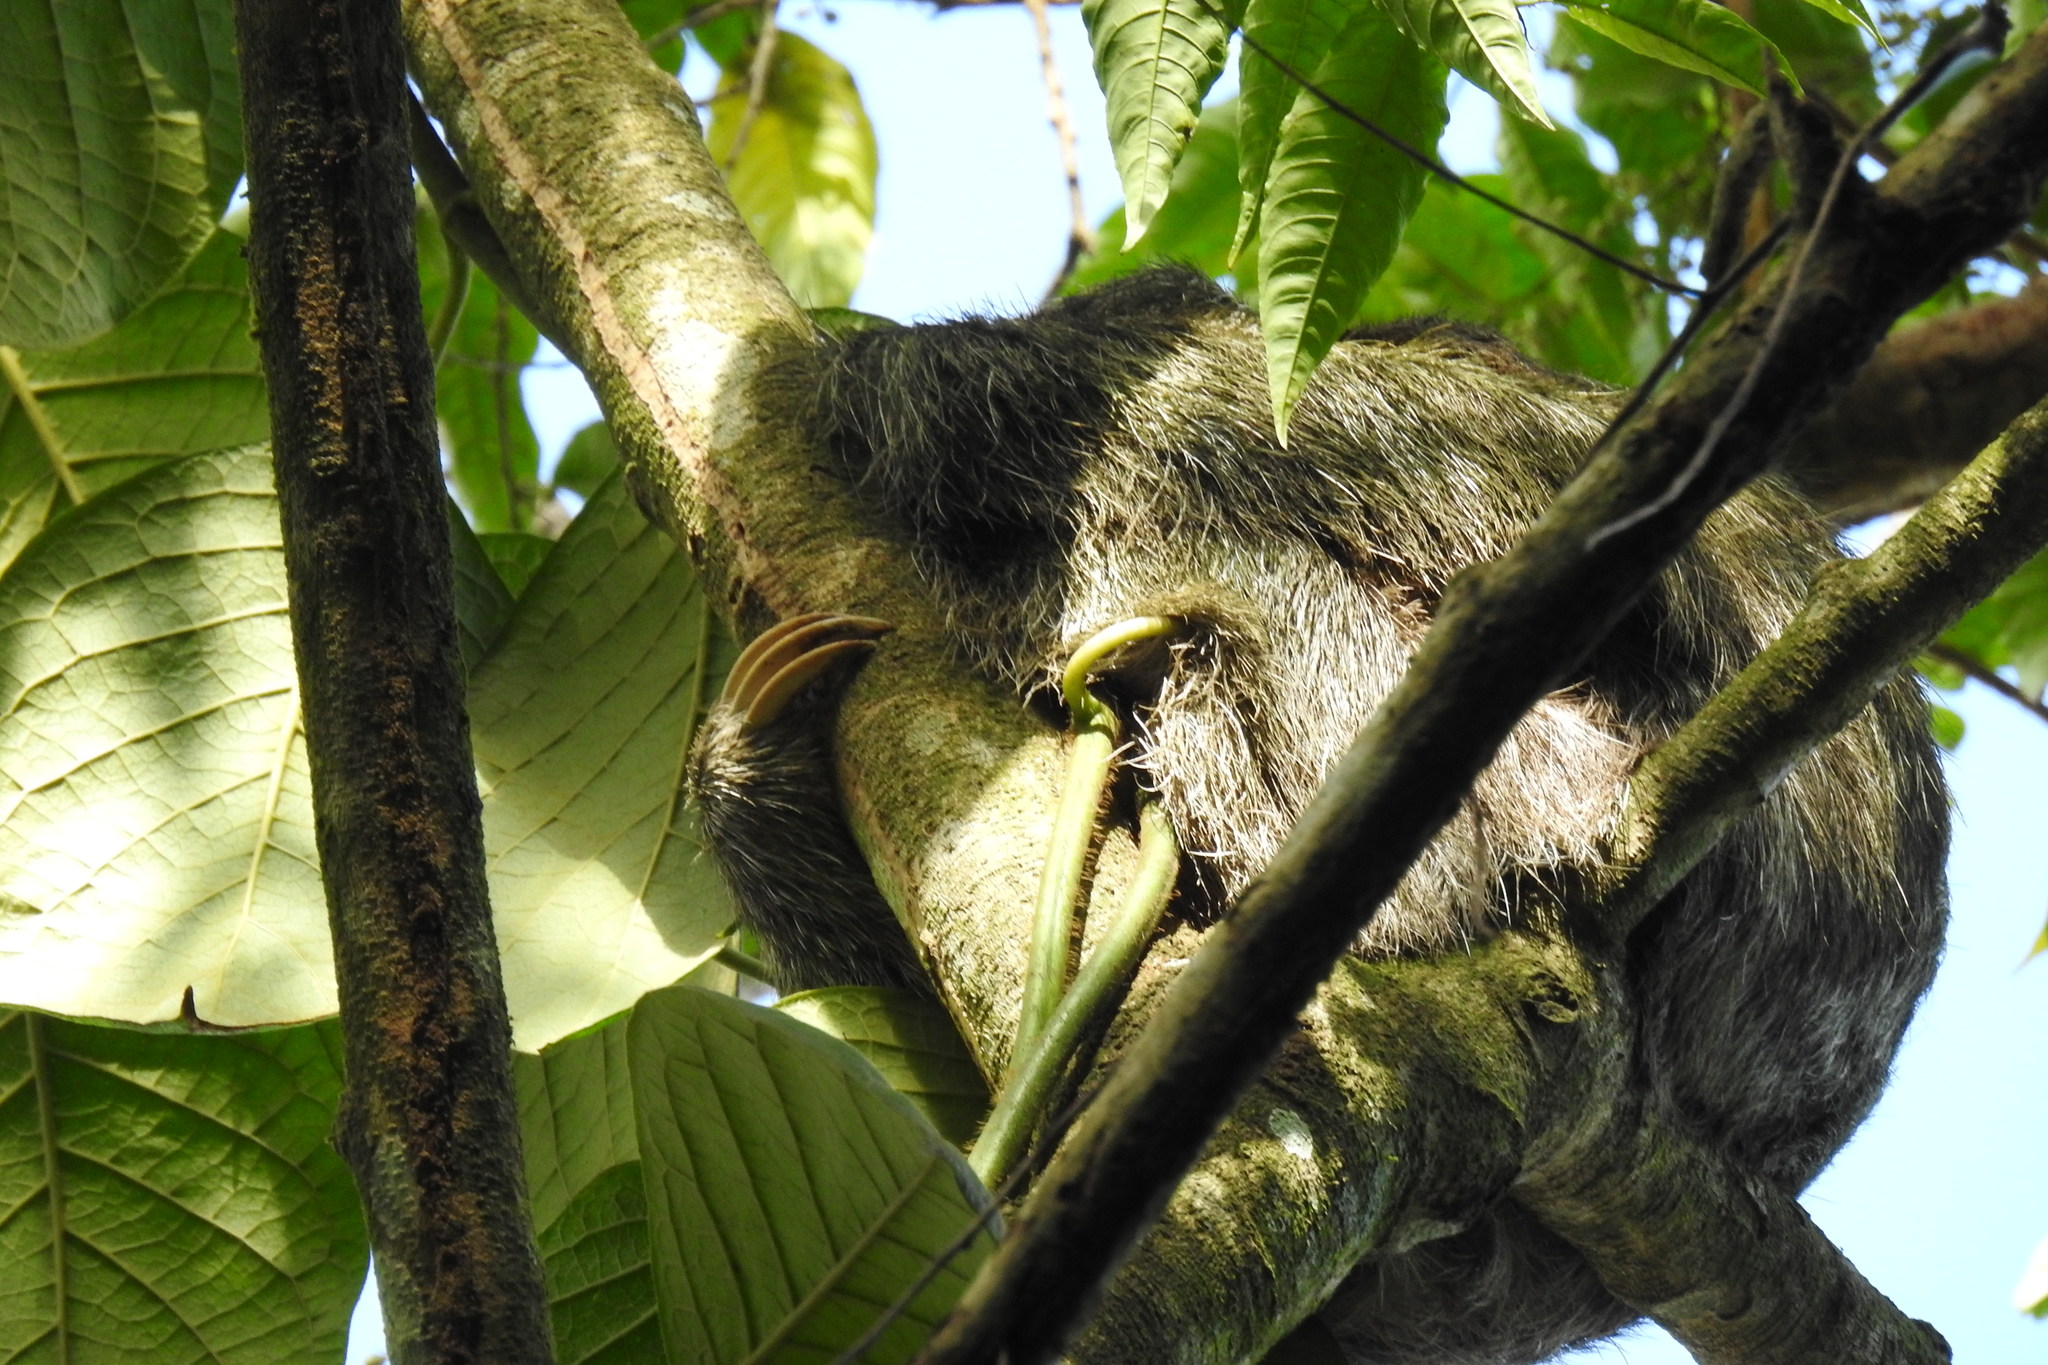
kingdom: Animalia
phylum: Chordata
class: Mammalia
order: Pilosa
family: Bradypodidae
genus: Bradypus
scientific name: Bradypus variegatus
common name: Brown-throated three-toed sloth
